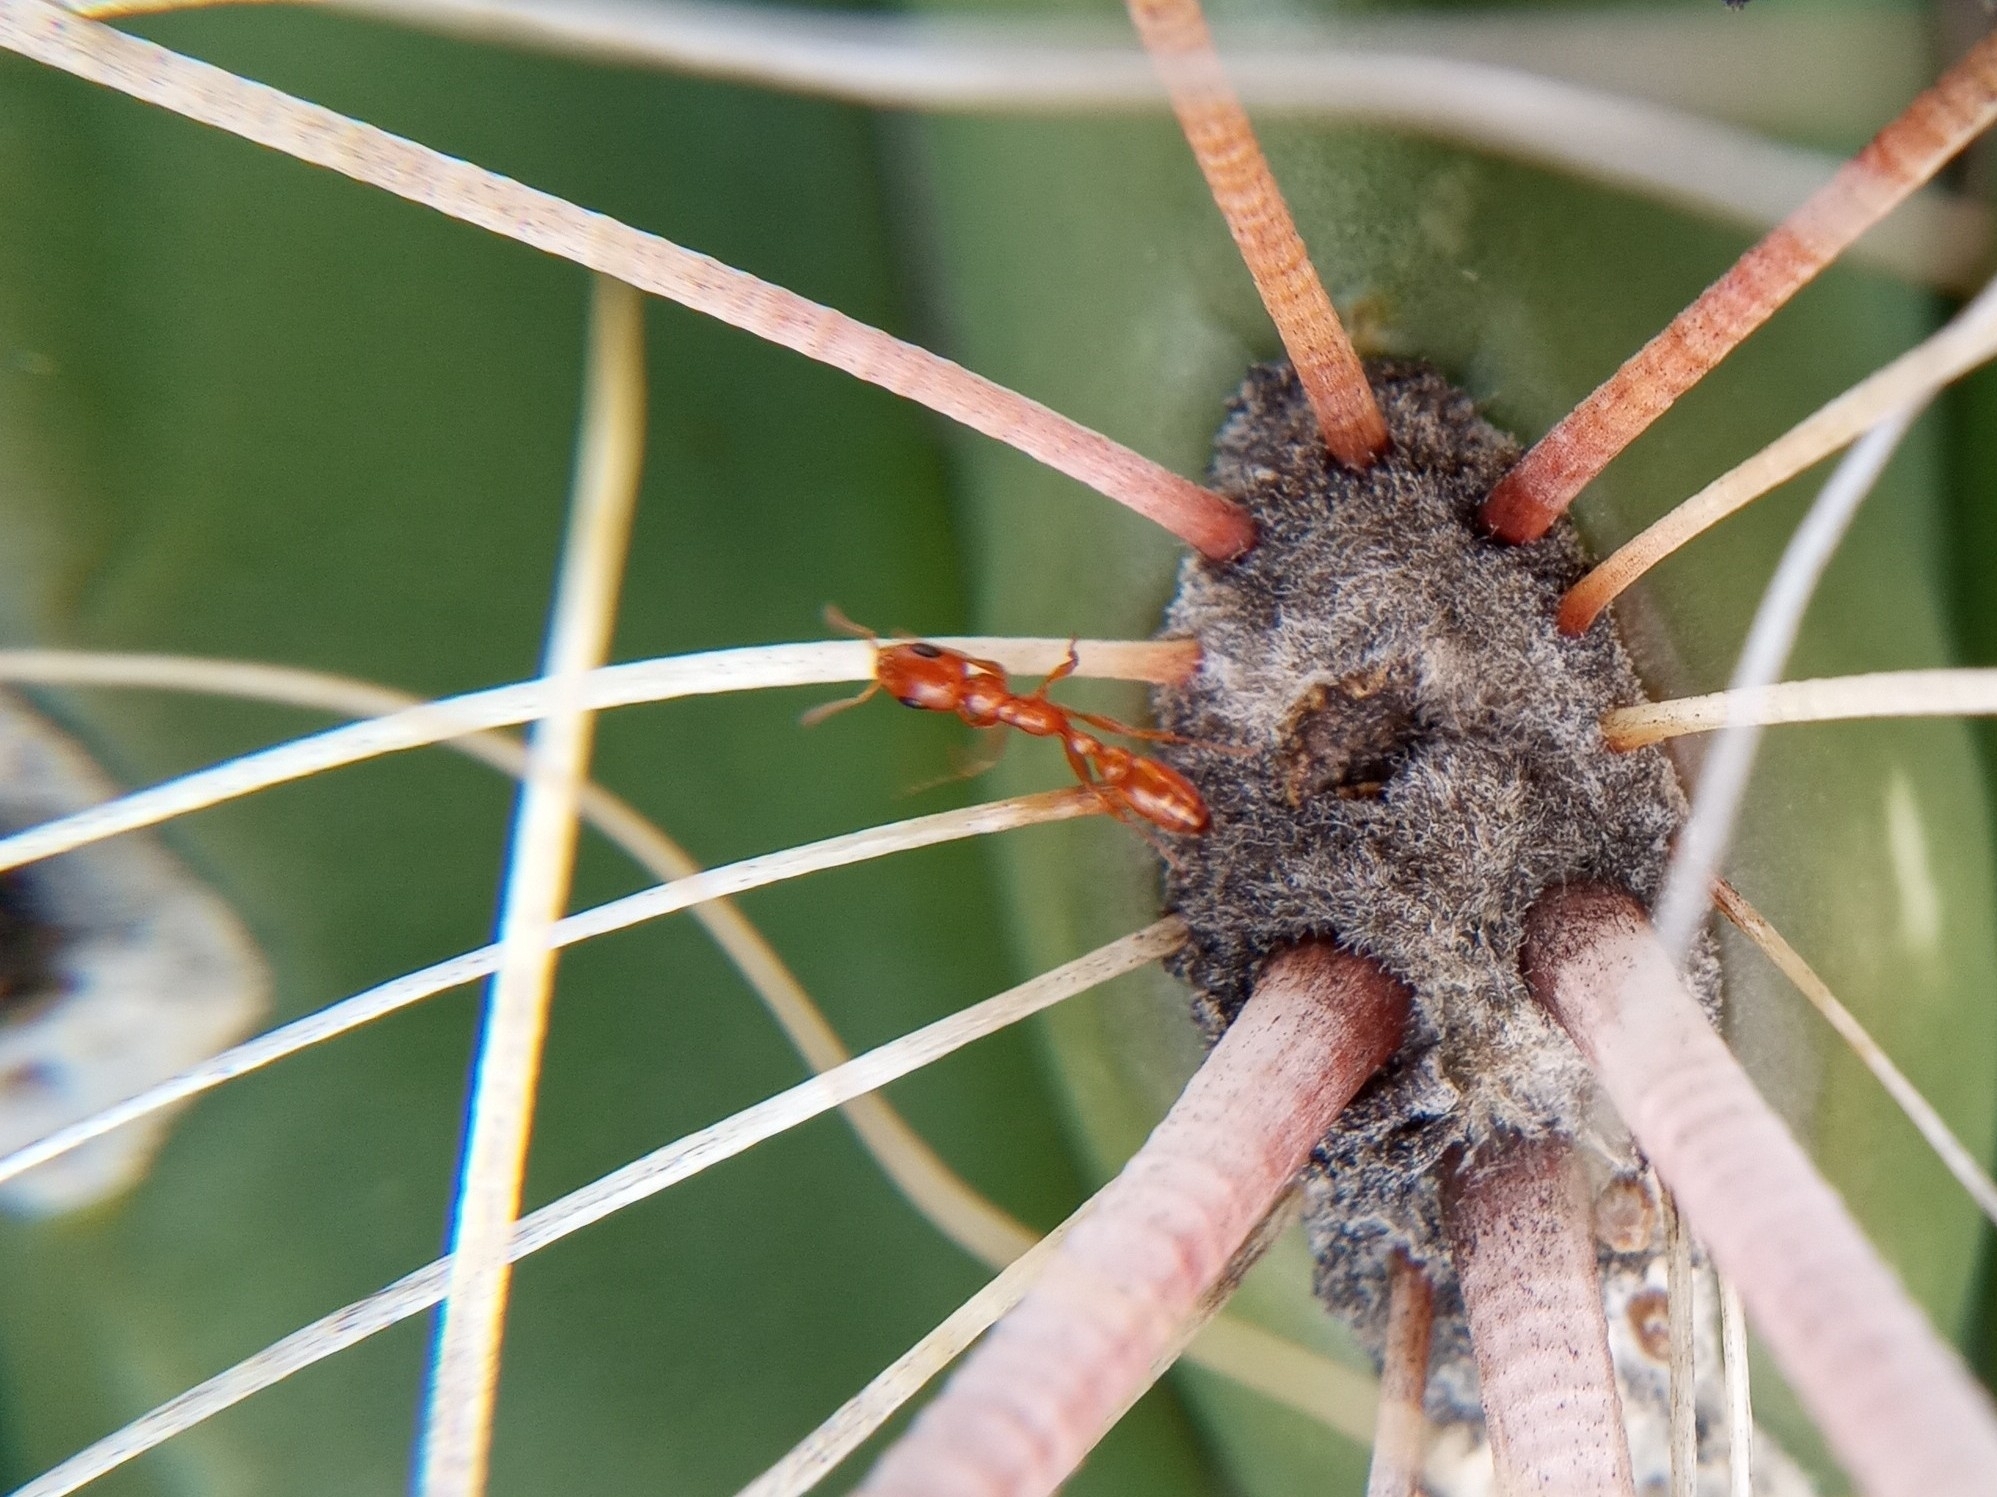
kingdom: Animalia
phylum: Arthropoda
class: Insecta
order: Hymenoptera
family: Formicidae
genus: Pseudomyrmex
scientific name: Pseudomyrmex apache
